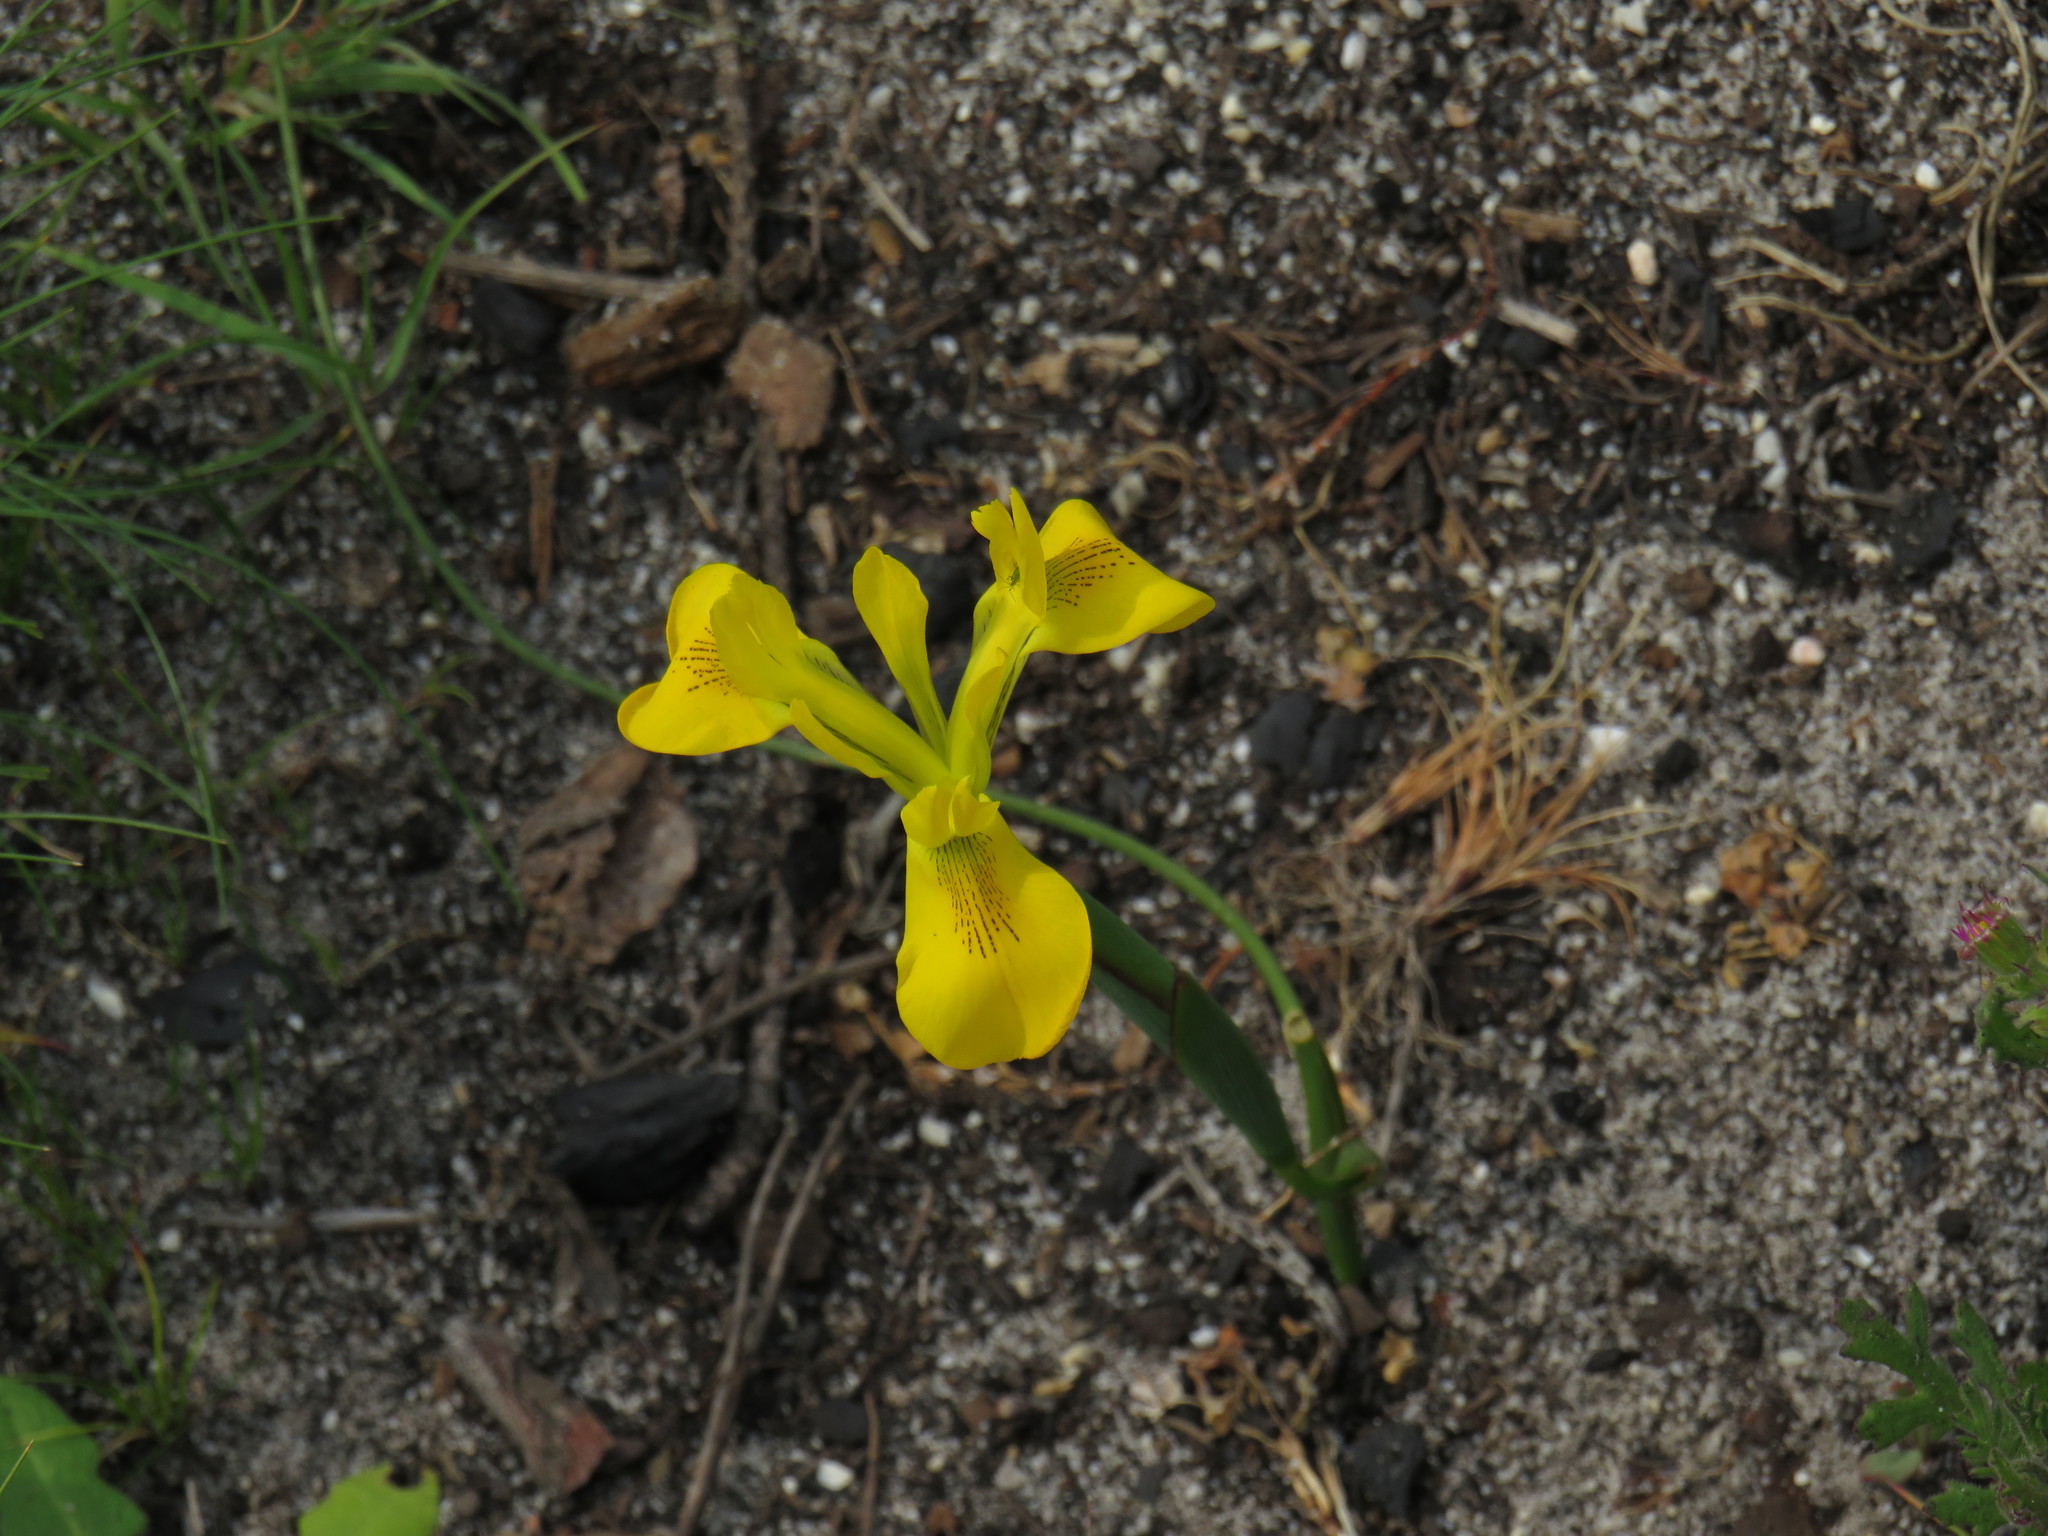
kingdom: Plantae
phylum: Tracheophyta
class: Liliopsida
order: Asparagales
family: Iridaceae
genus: Moraea
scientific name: Moraea neglecta
